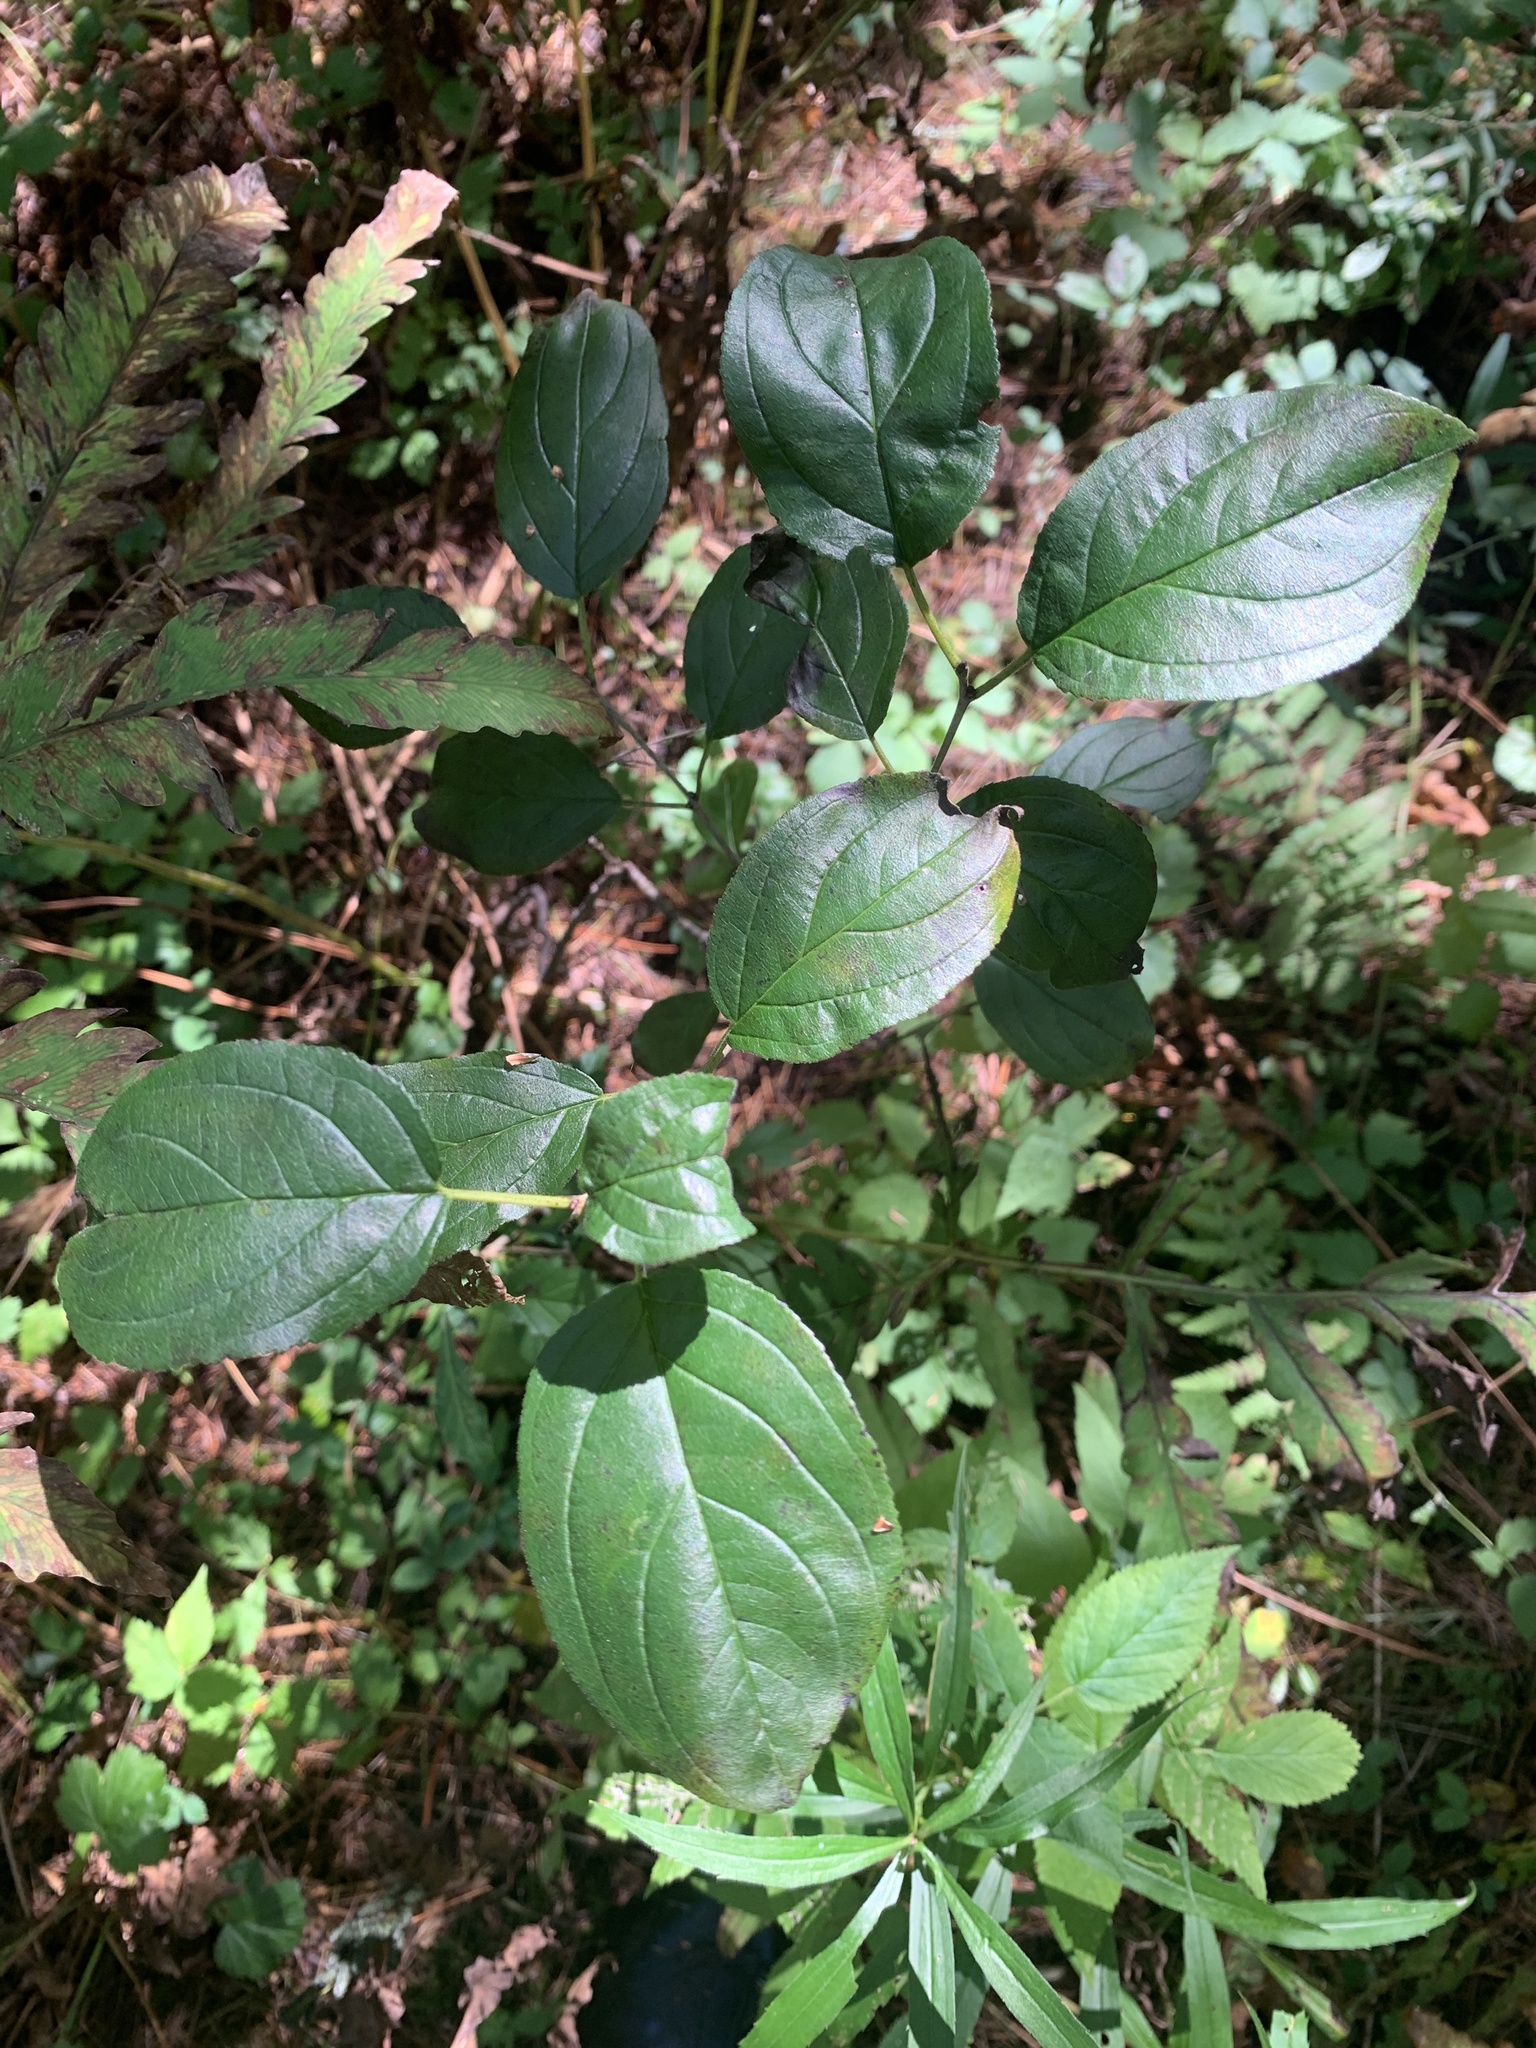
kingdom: Plantae
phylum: Tracheophyta
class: Magnoliopsida
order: Rosales
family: Rhamnaceae
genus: Rhamnus
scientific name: Rhamnus cathartica
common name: Common buckthorn
